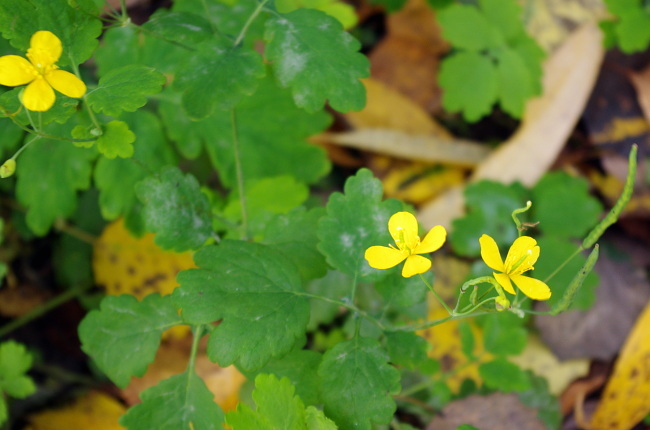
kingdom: Plantae
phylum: Tracheophyta
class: Magnoliopsida
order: Ranunculales
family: Papaveraceae
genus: Chelidonium
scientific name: Chelidonium majus
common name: Greater celandine
